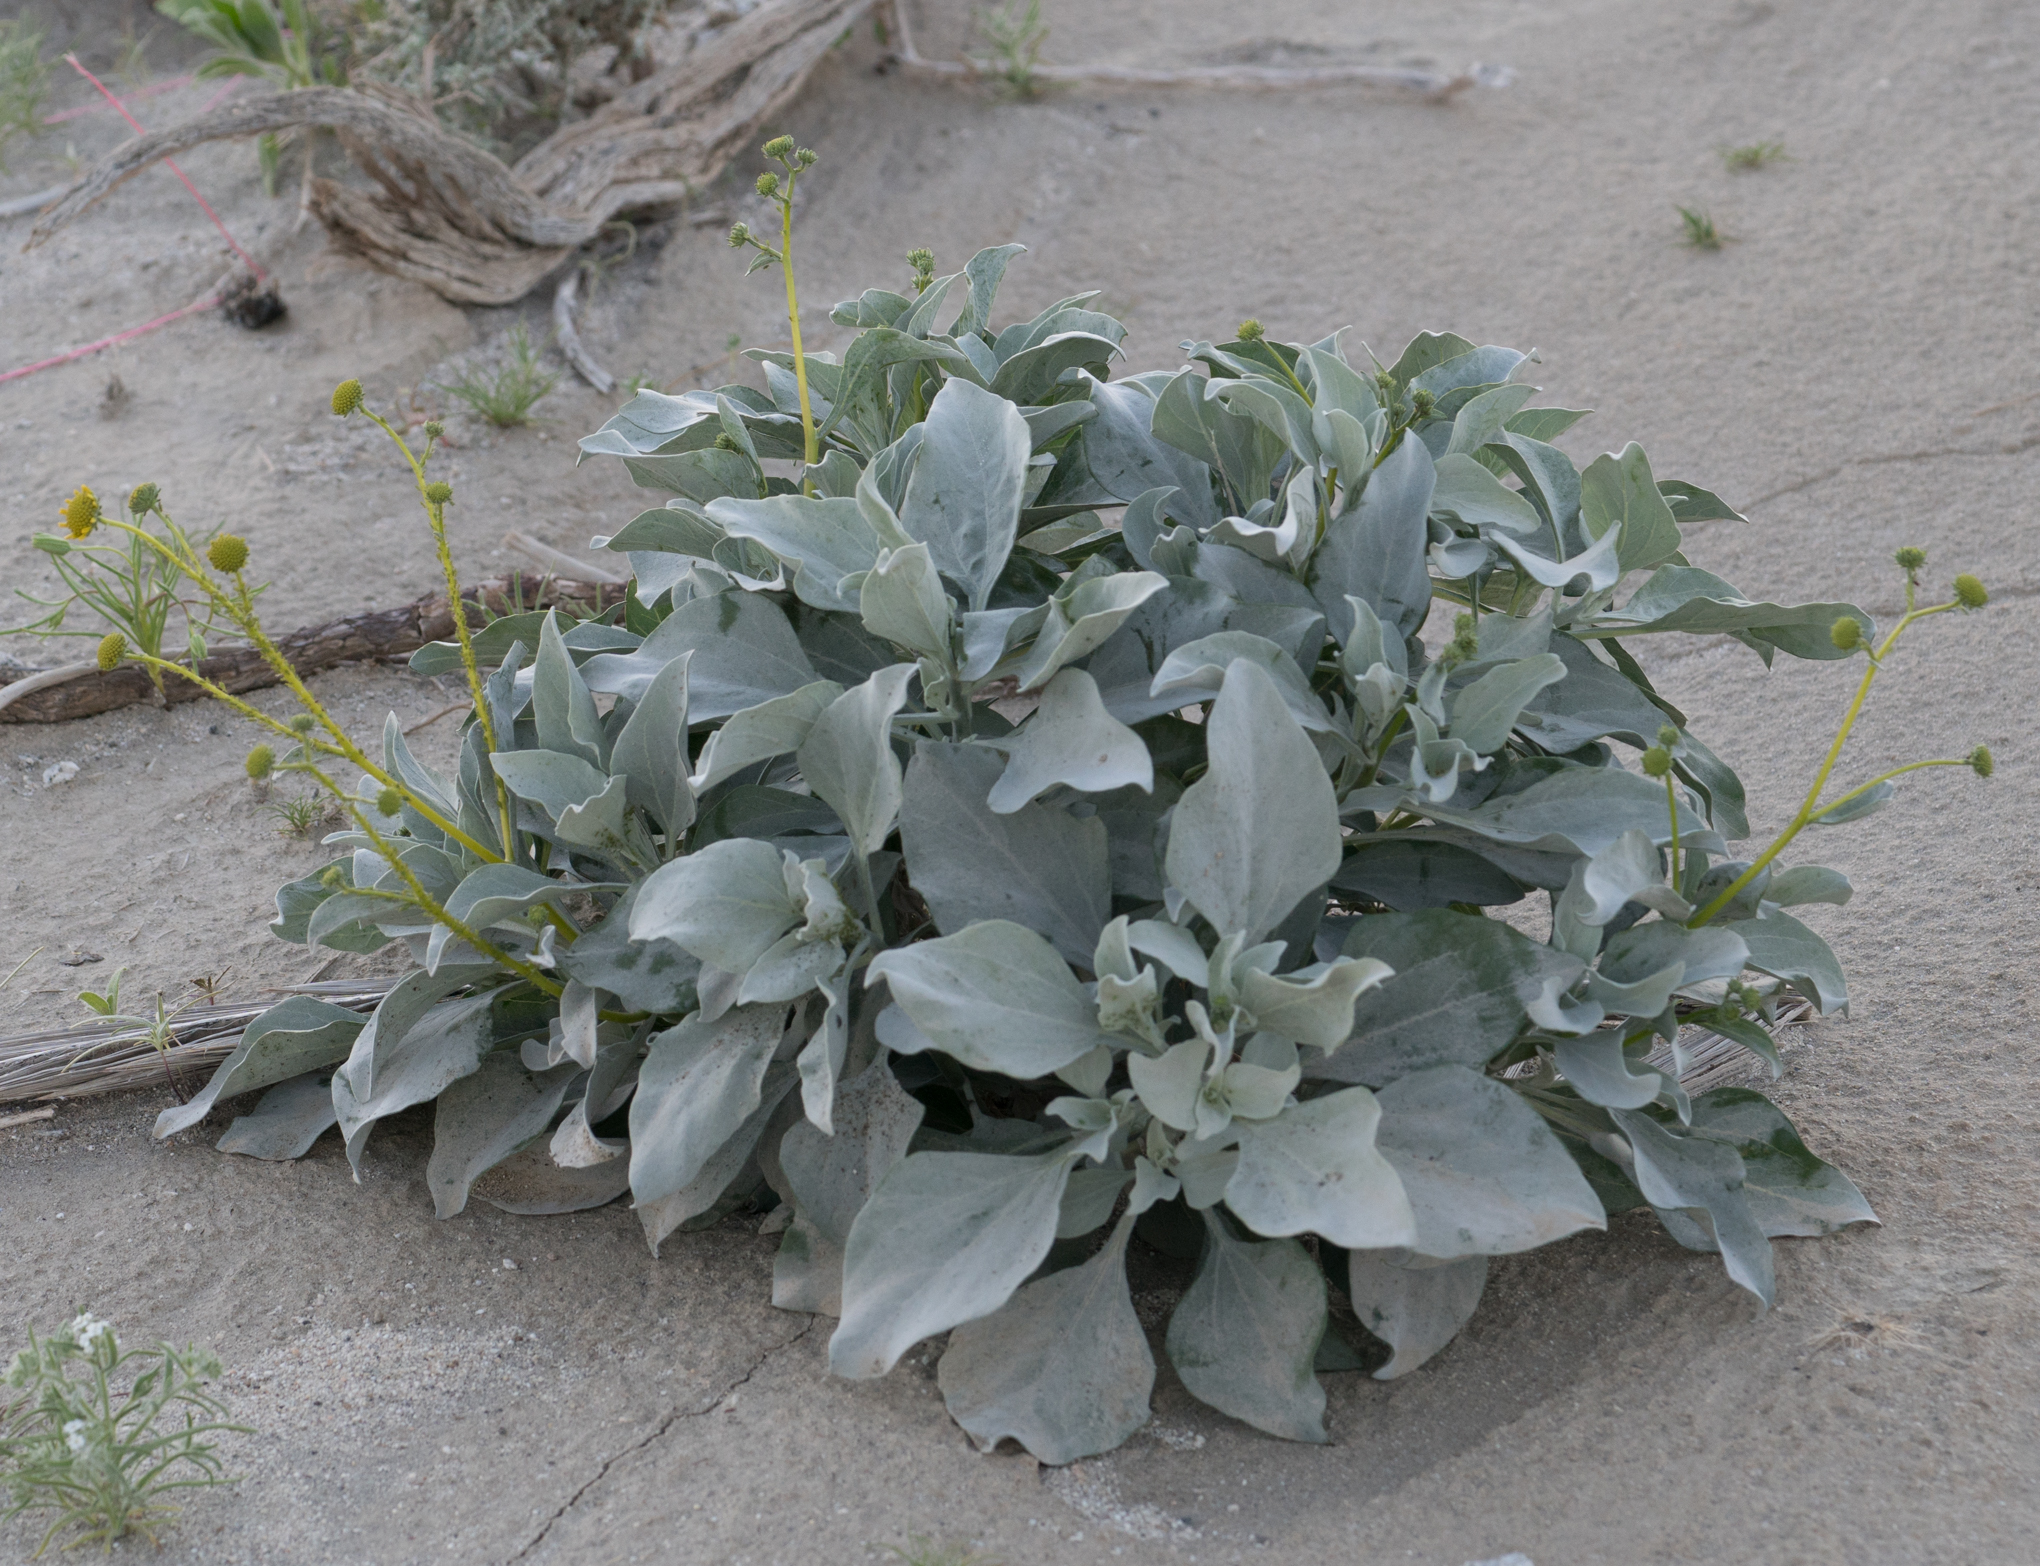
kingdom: Plantae
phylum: Tracheophyta
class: Magnoliopsida
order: Asterales
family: Asteraceae
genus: Encelia
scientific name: Encelia farinosa
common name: Brittlebush
